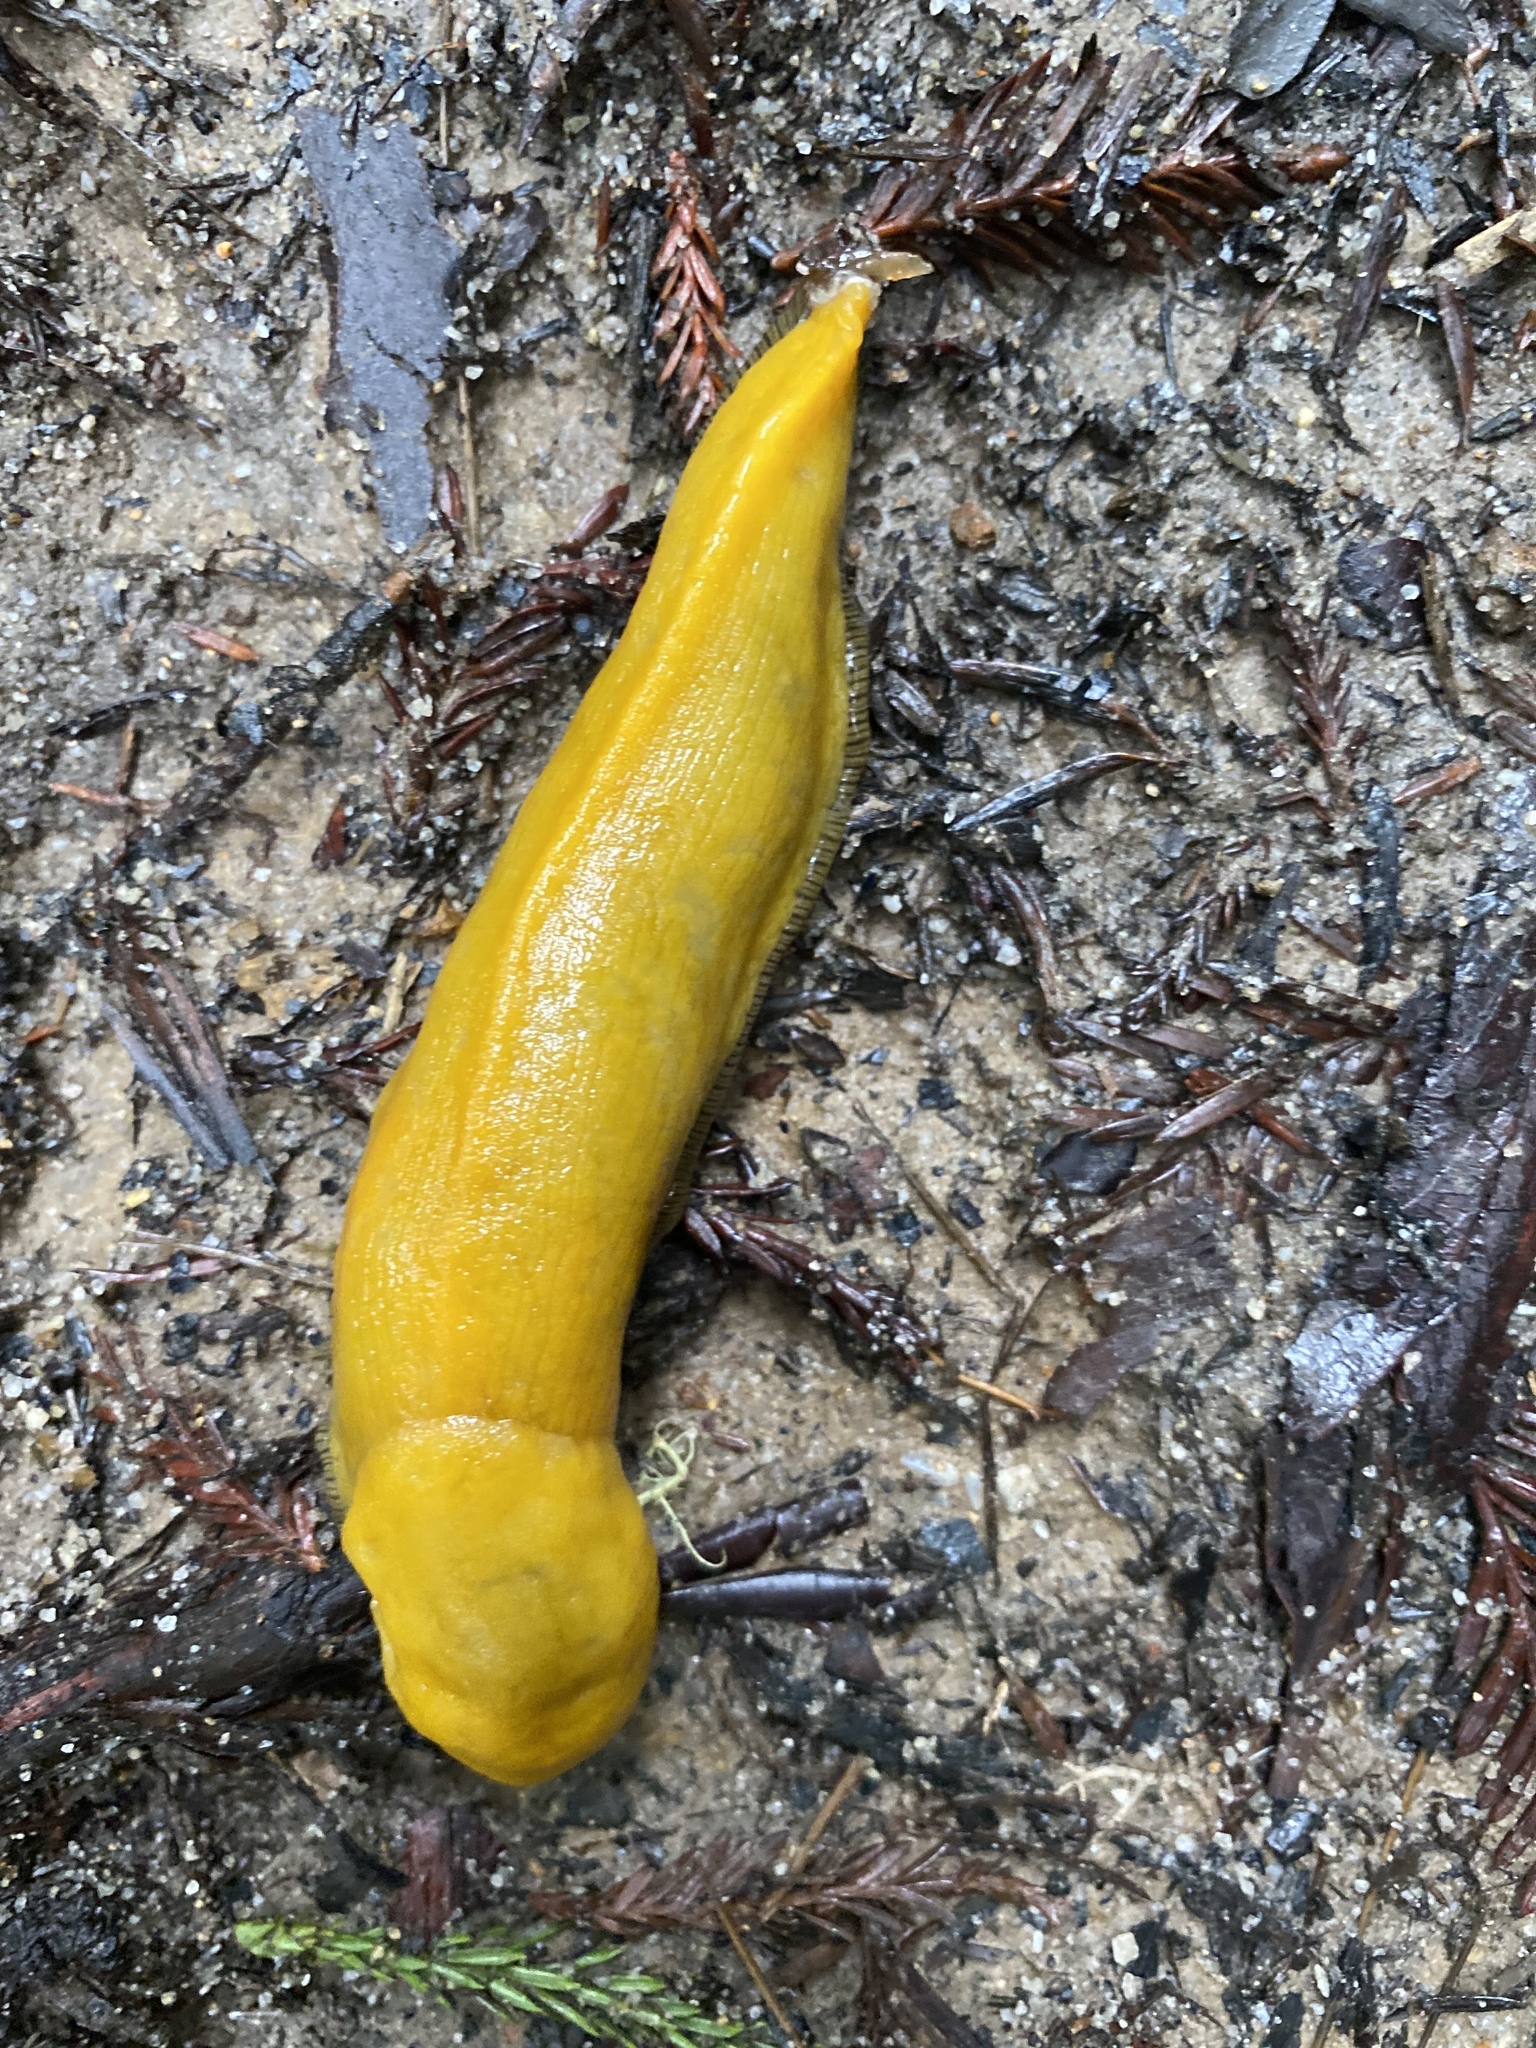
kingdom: Animalia
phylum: Mollusca
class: Gastropoda
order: Stylommatophora
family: Ariolimacidae
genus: Ariolimax
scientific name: Ariolimax dolichophallus
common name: Slender banana slug
